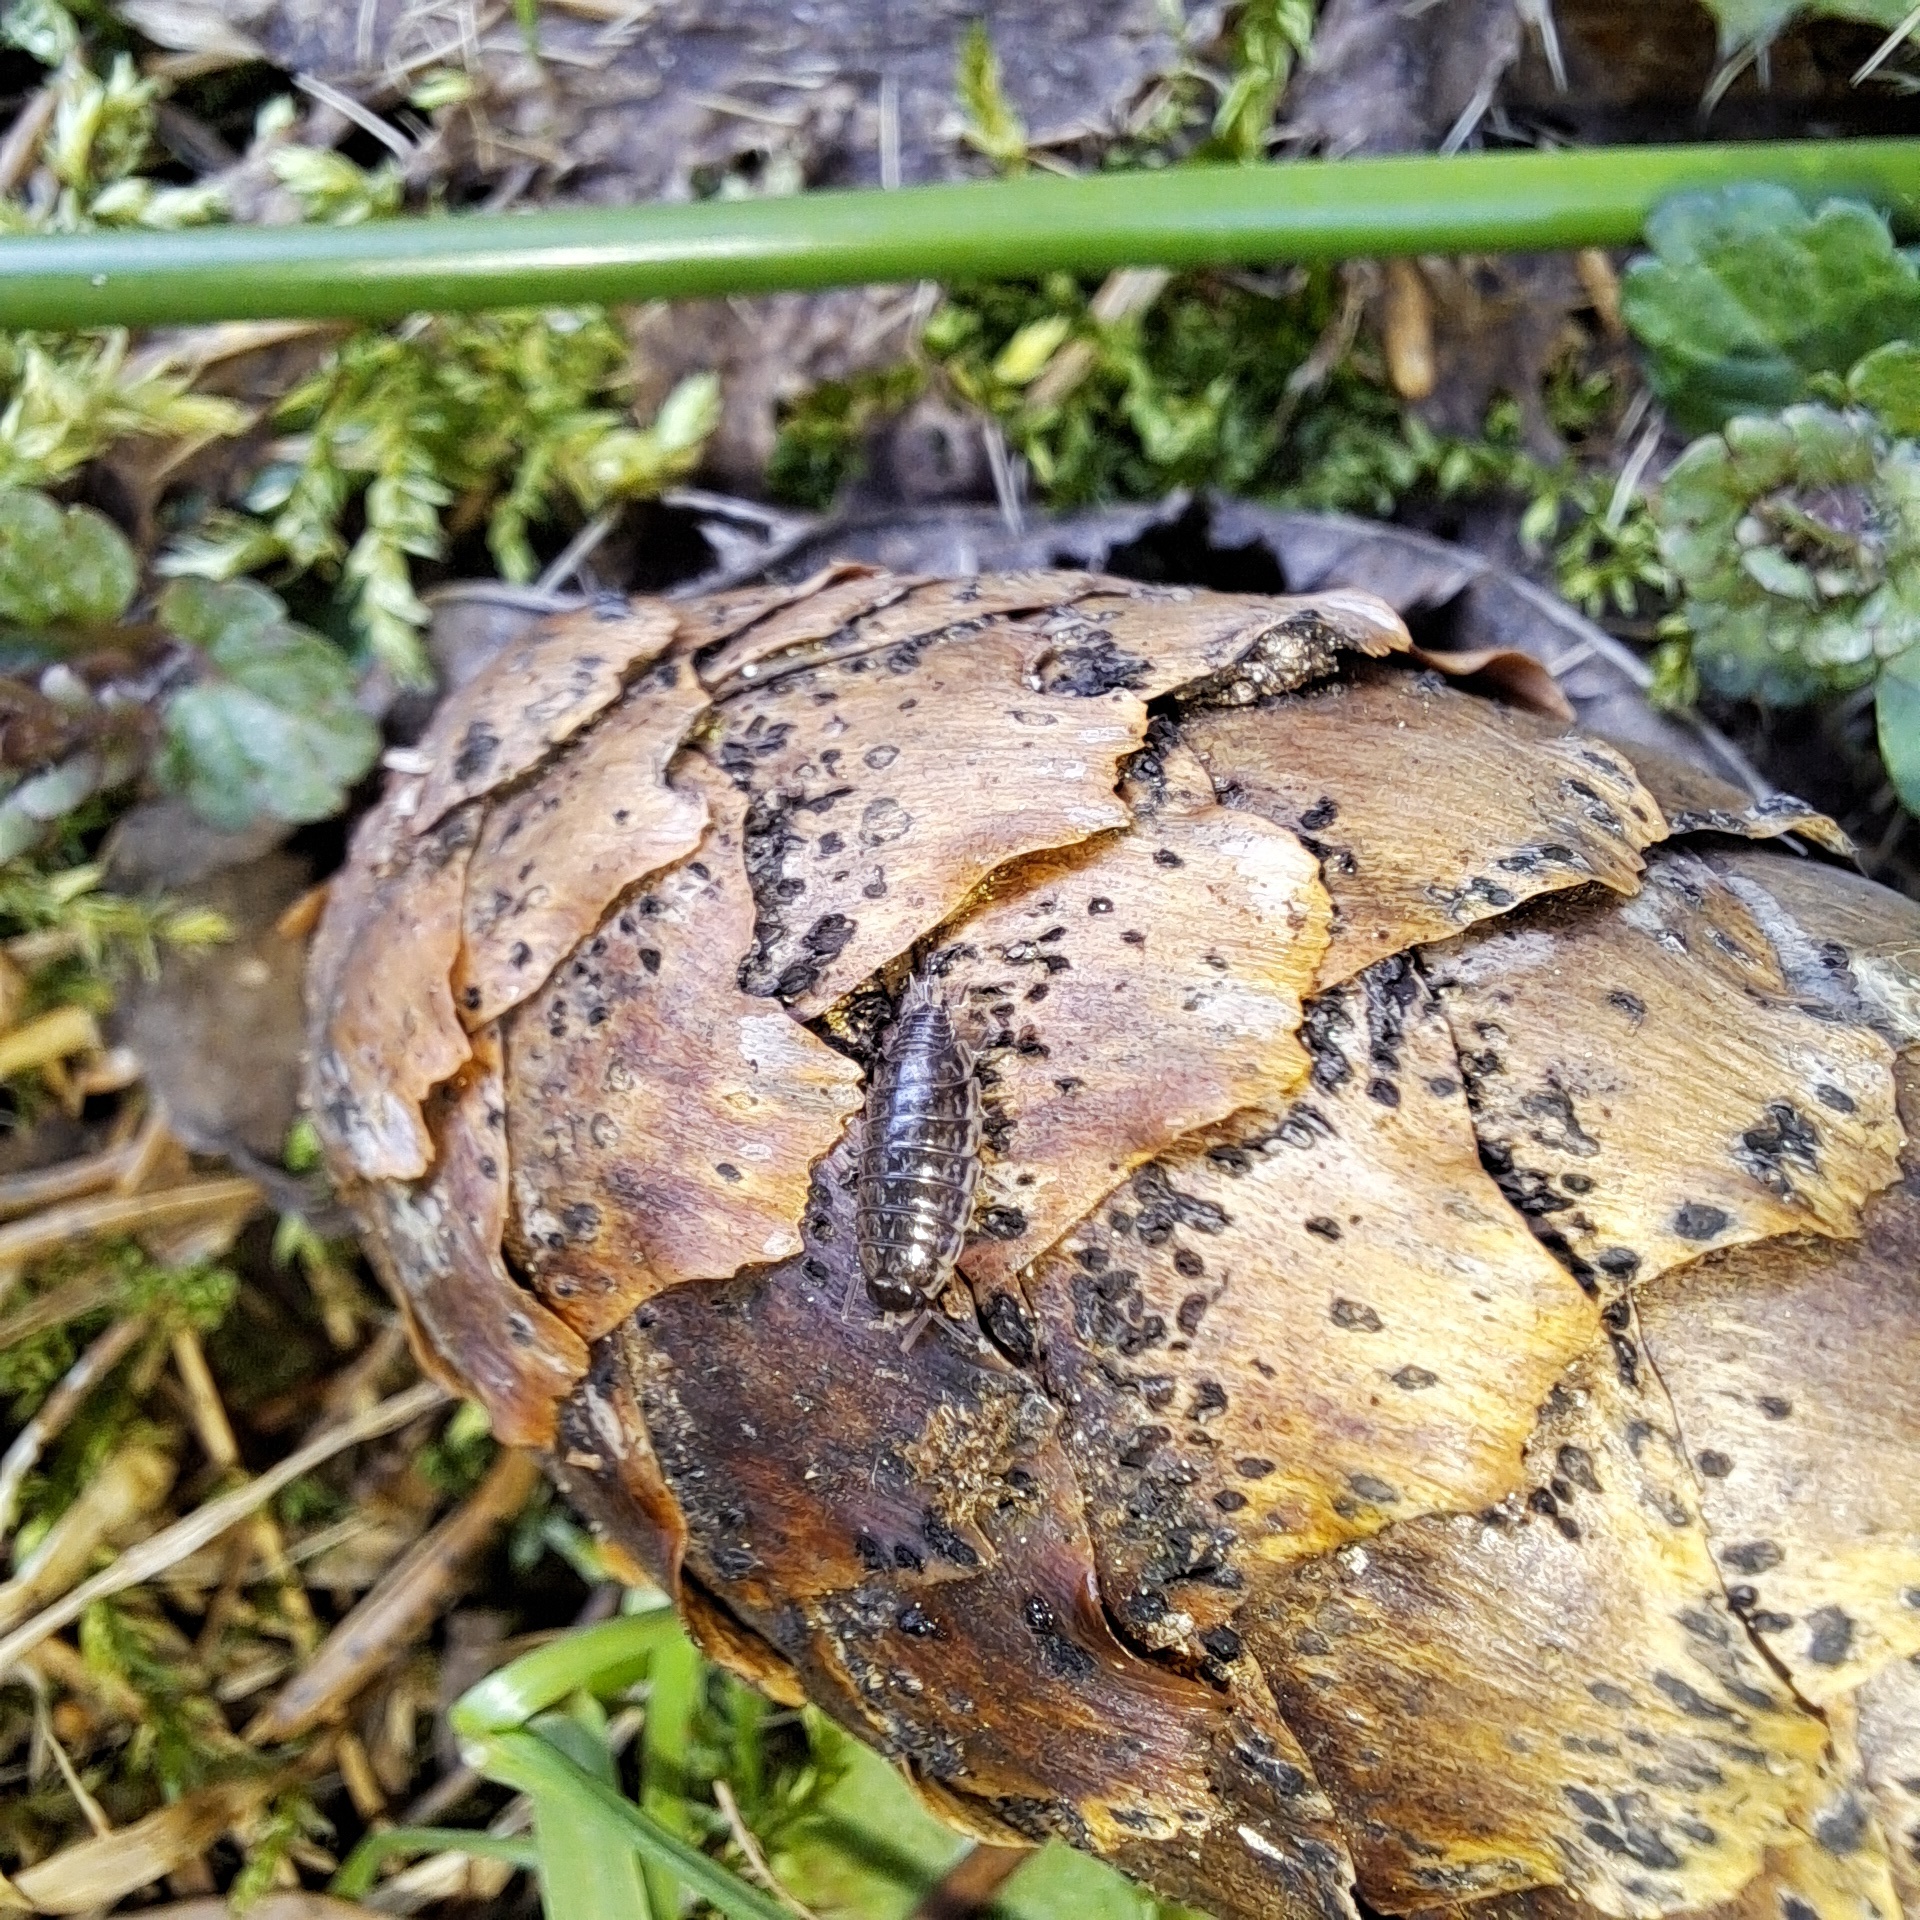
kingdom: Animalia
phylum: Arthropoda
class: Malacostraca
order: Isopoda
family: Philosciidae
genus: Philoscia
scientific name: Philoscia muscorum
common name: Common striped woodlouse
